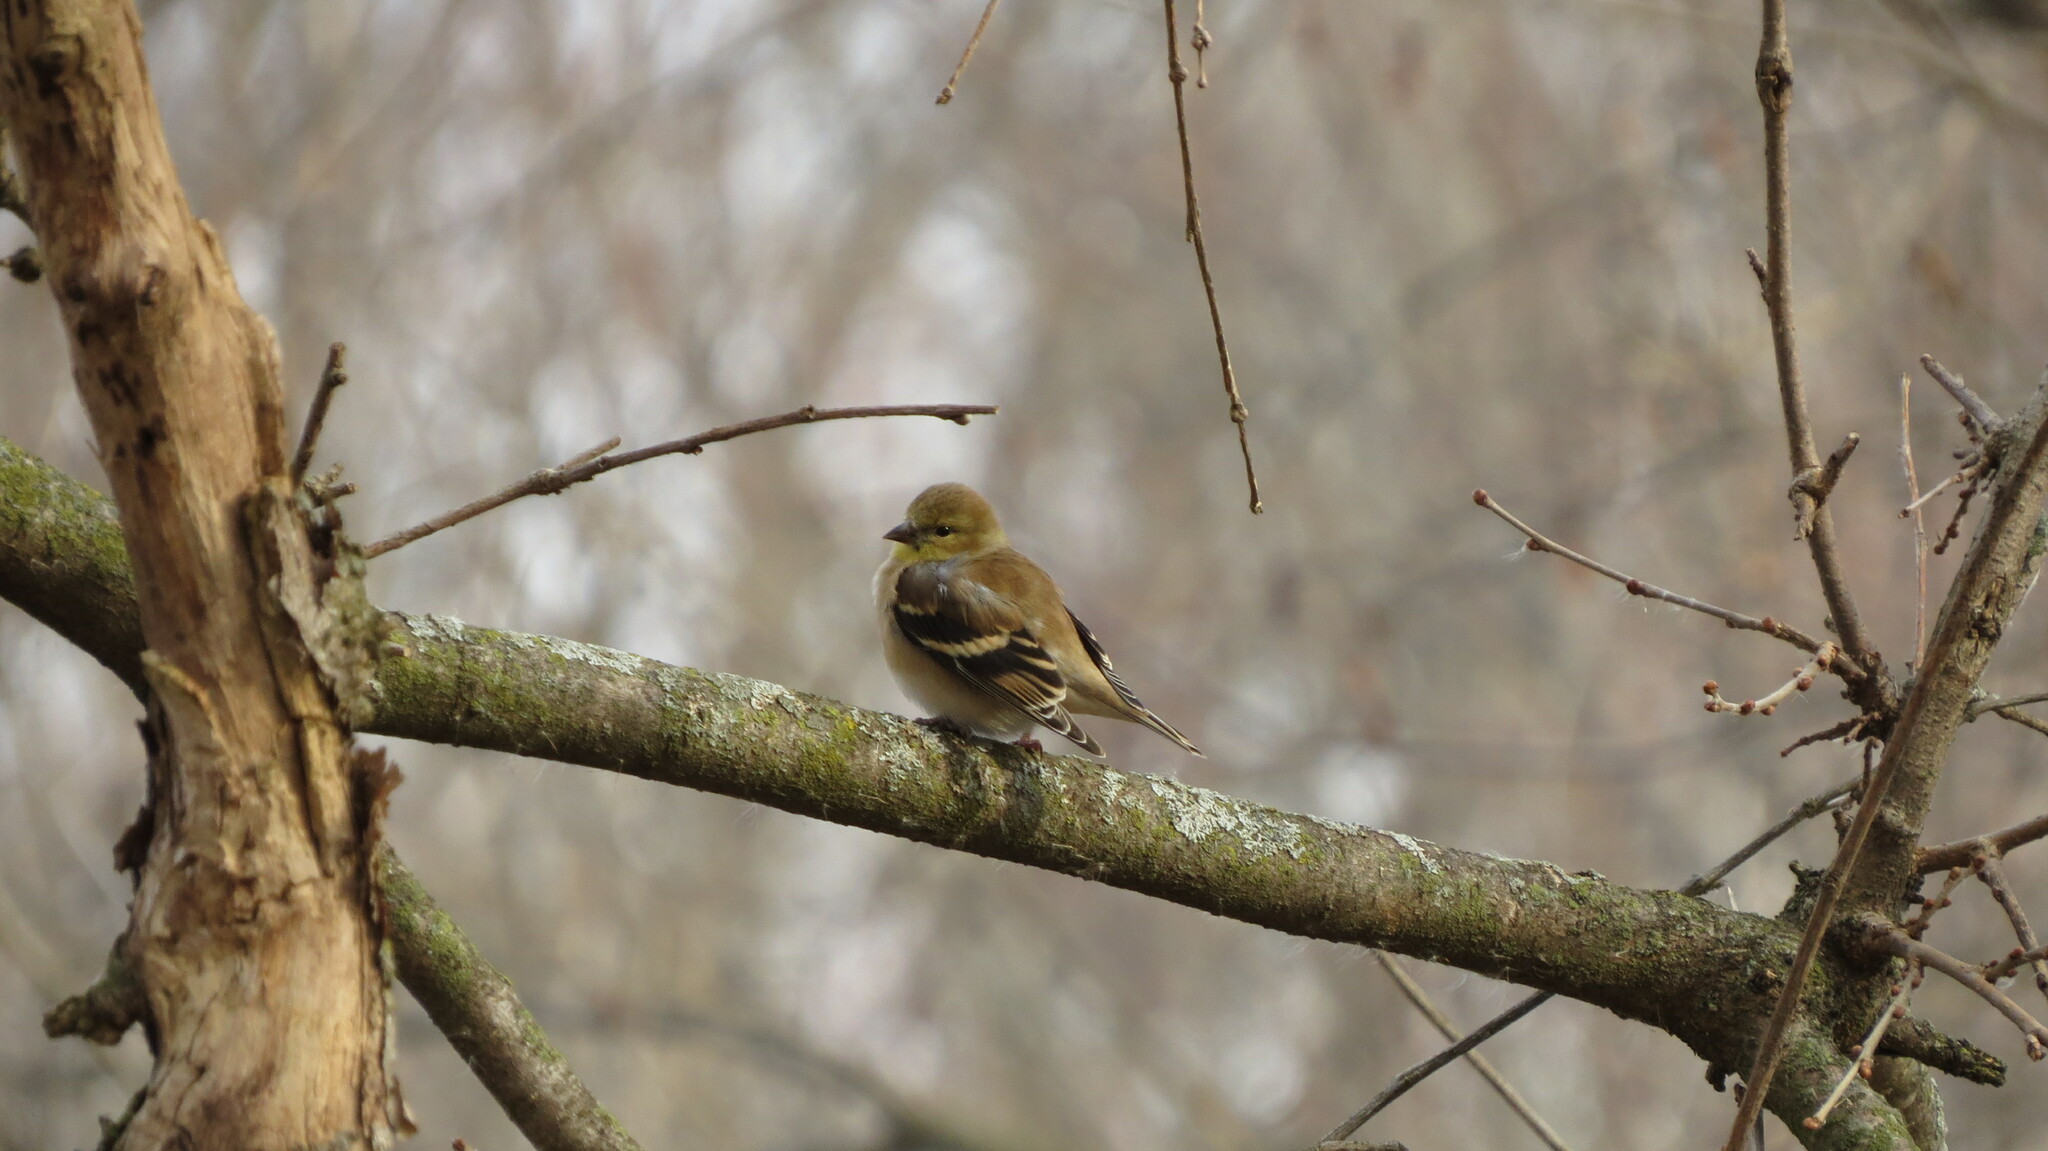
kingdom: Animalia
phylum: Chordata
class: Aves
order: Passeriformes
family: Fringillidae
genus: Spinus
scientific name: Spinus tristis
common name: American goldfinch
